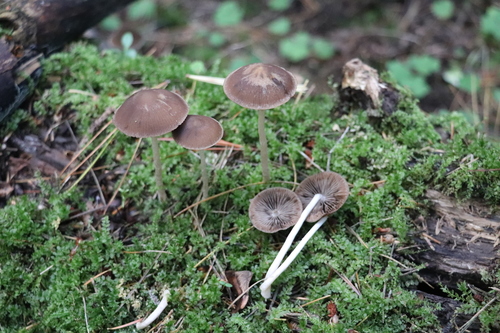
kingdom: Fungi
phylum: Basidiomycota
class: Agaricomycetes
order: Agaricales
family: Psathyrellaceae
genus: Psathyrella
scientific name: Psathyrella
